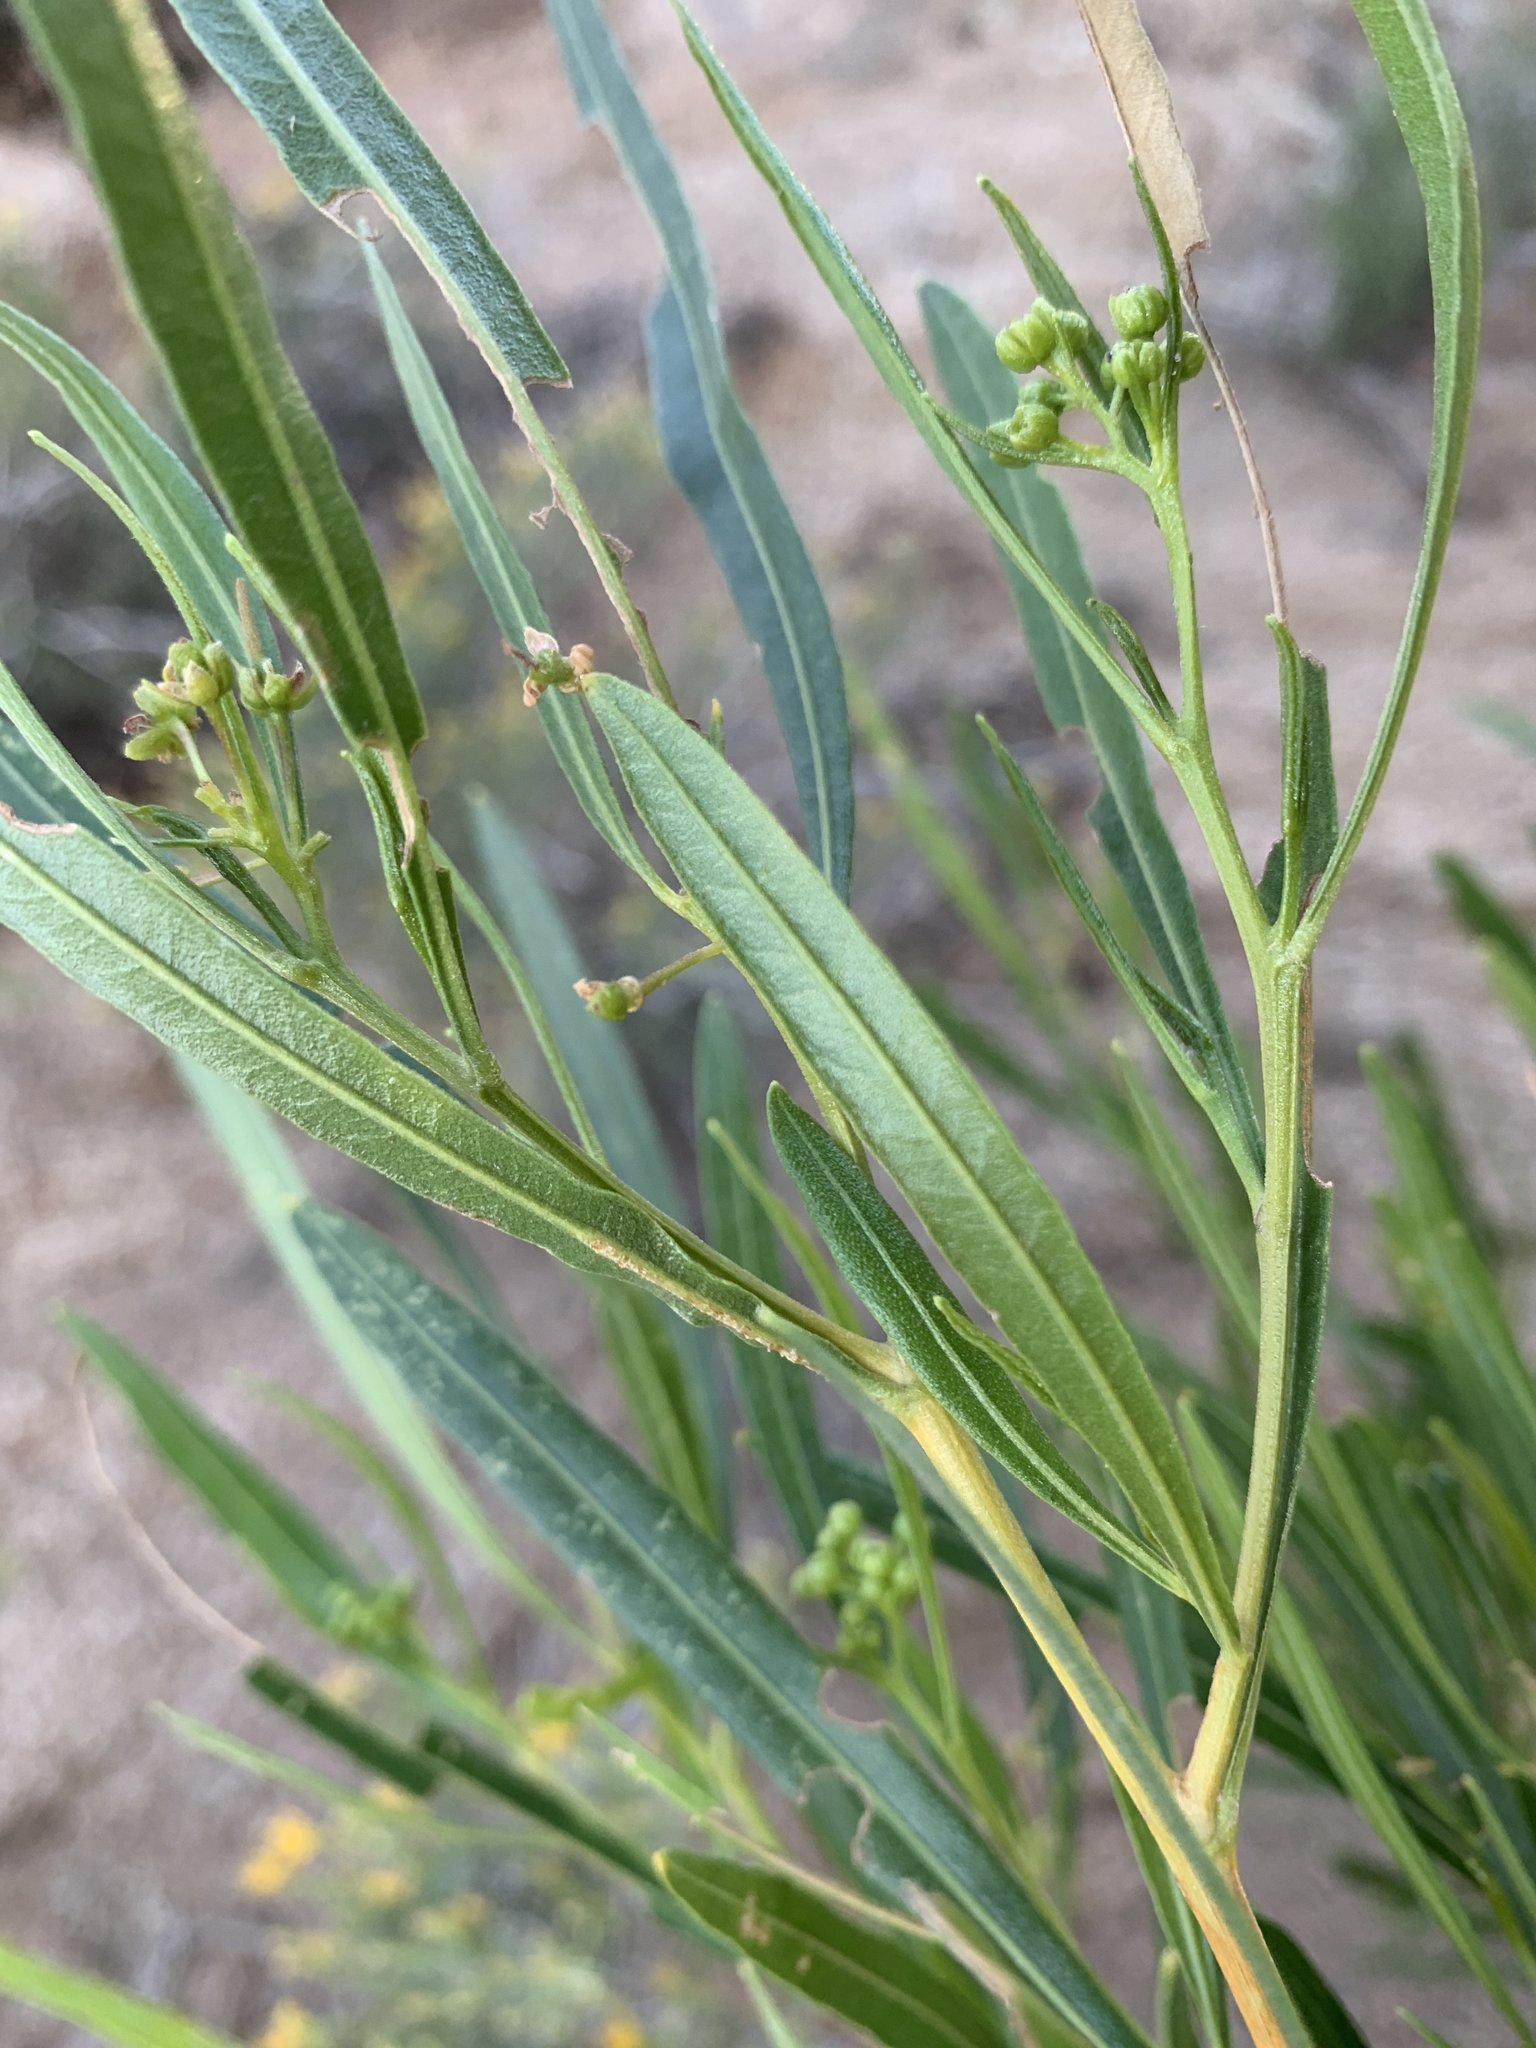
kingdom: Plantae
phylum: Tracheophyta
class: Magnoliopsida
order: Sapindales
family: Sapindaceae
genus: Dodonaea
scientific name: Dodonaea viscosa
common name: Hopbush
